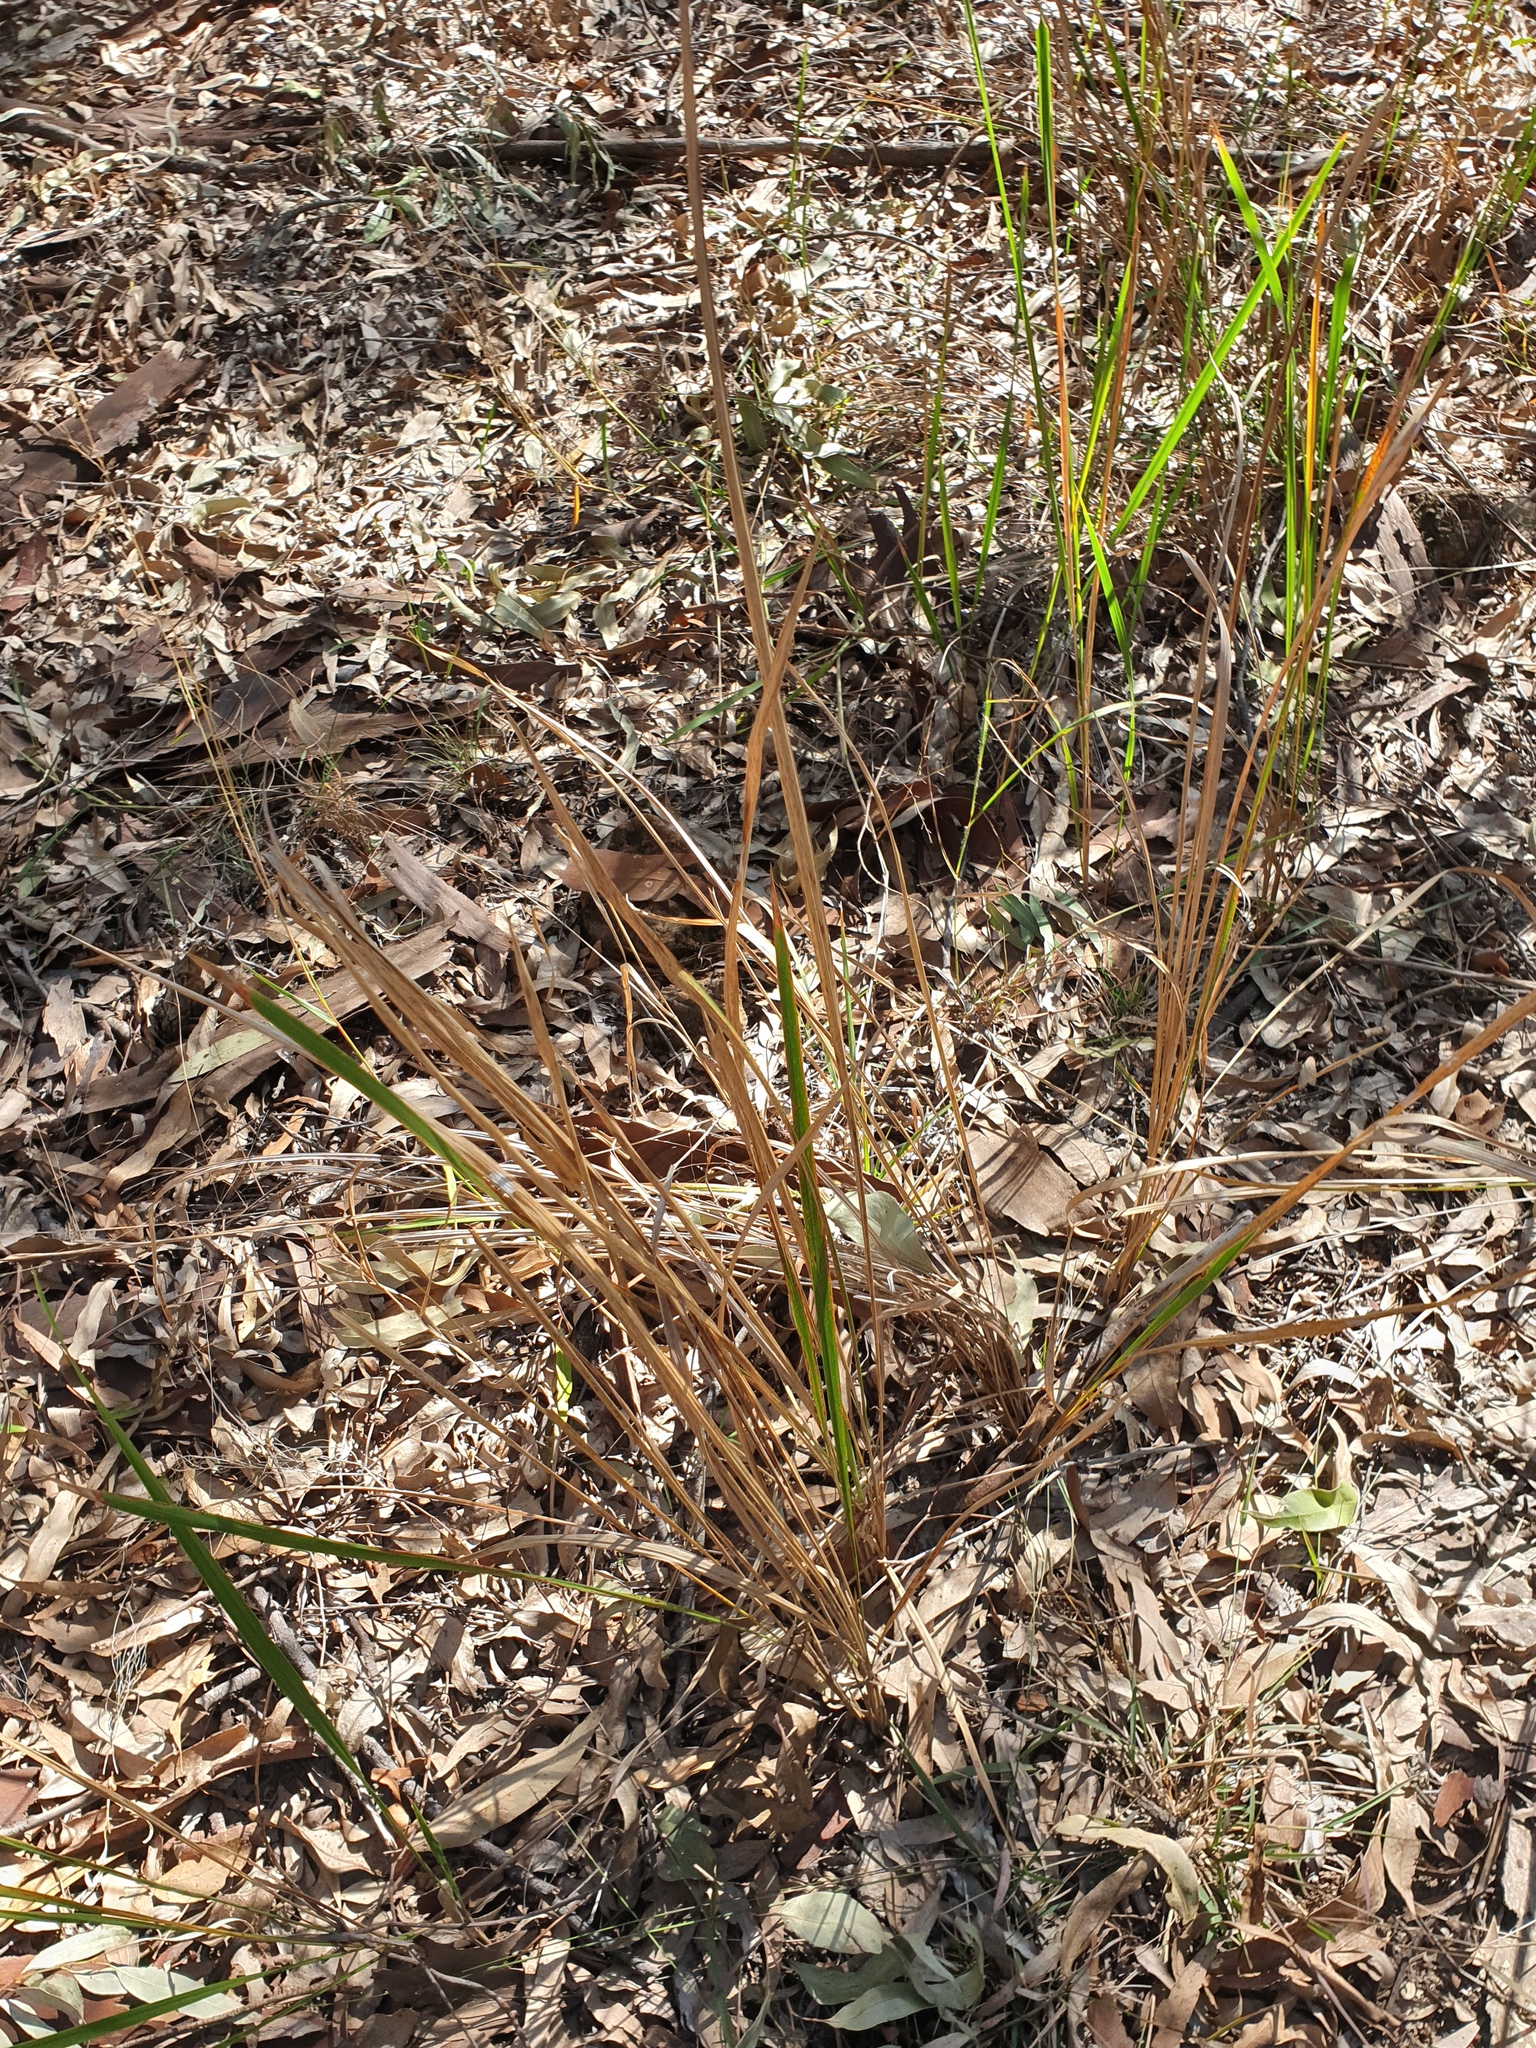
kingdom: Plantae
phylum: Tracheophyta
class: Liliopsida
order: Poales
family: Poaceae
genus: Imperata
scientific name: Imperata cylindrica
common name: Cogongrass
